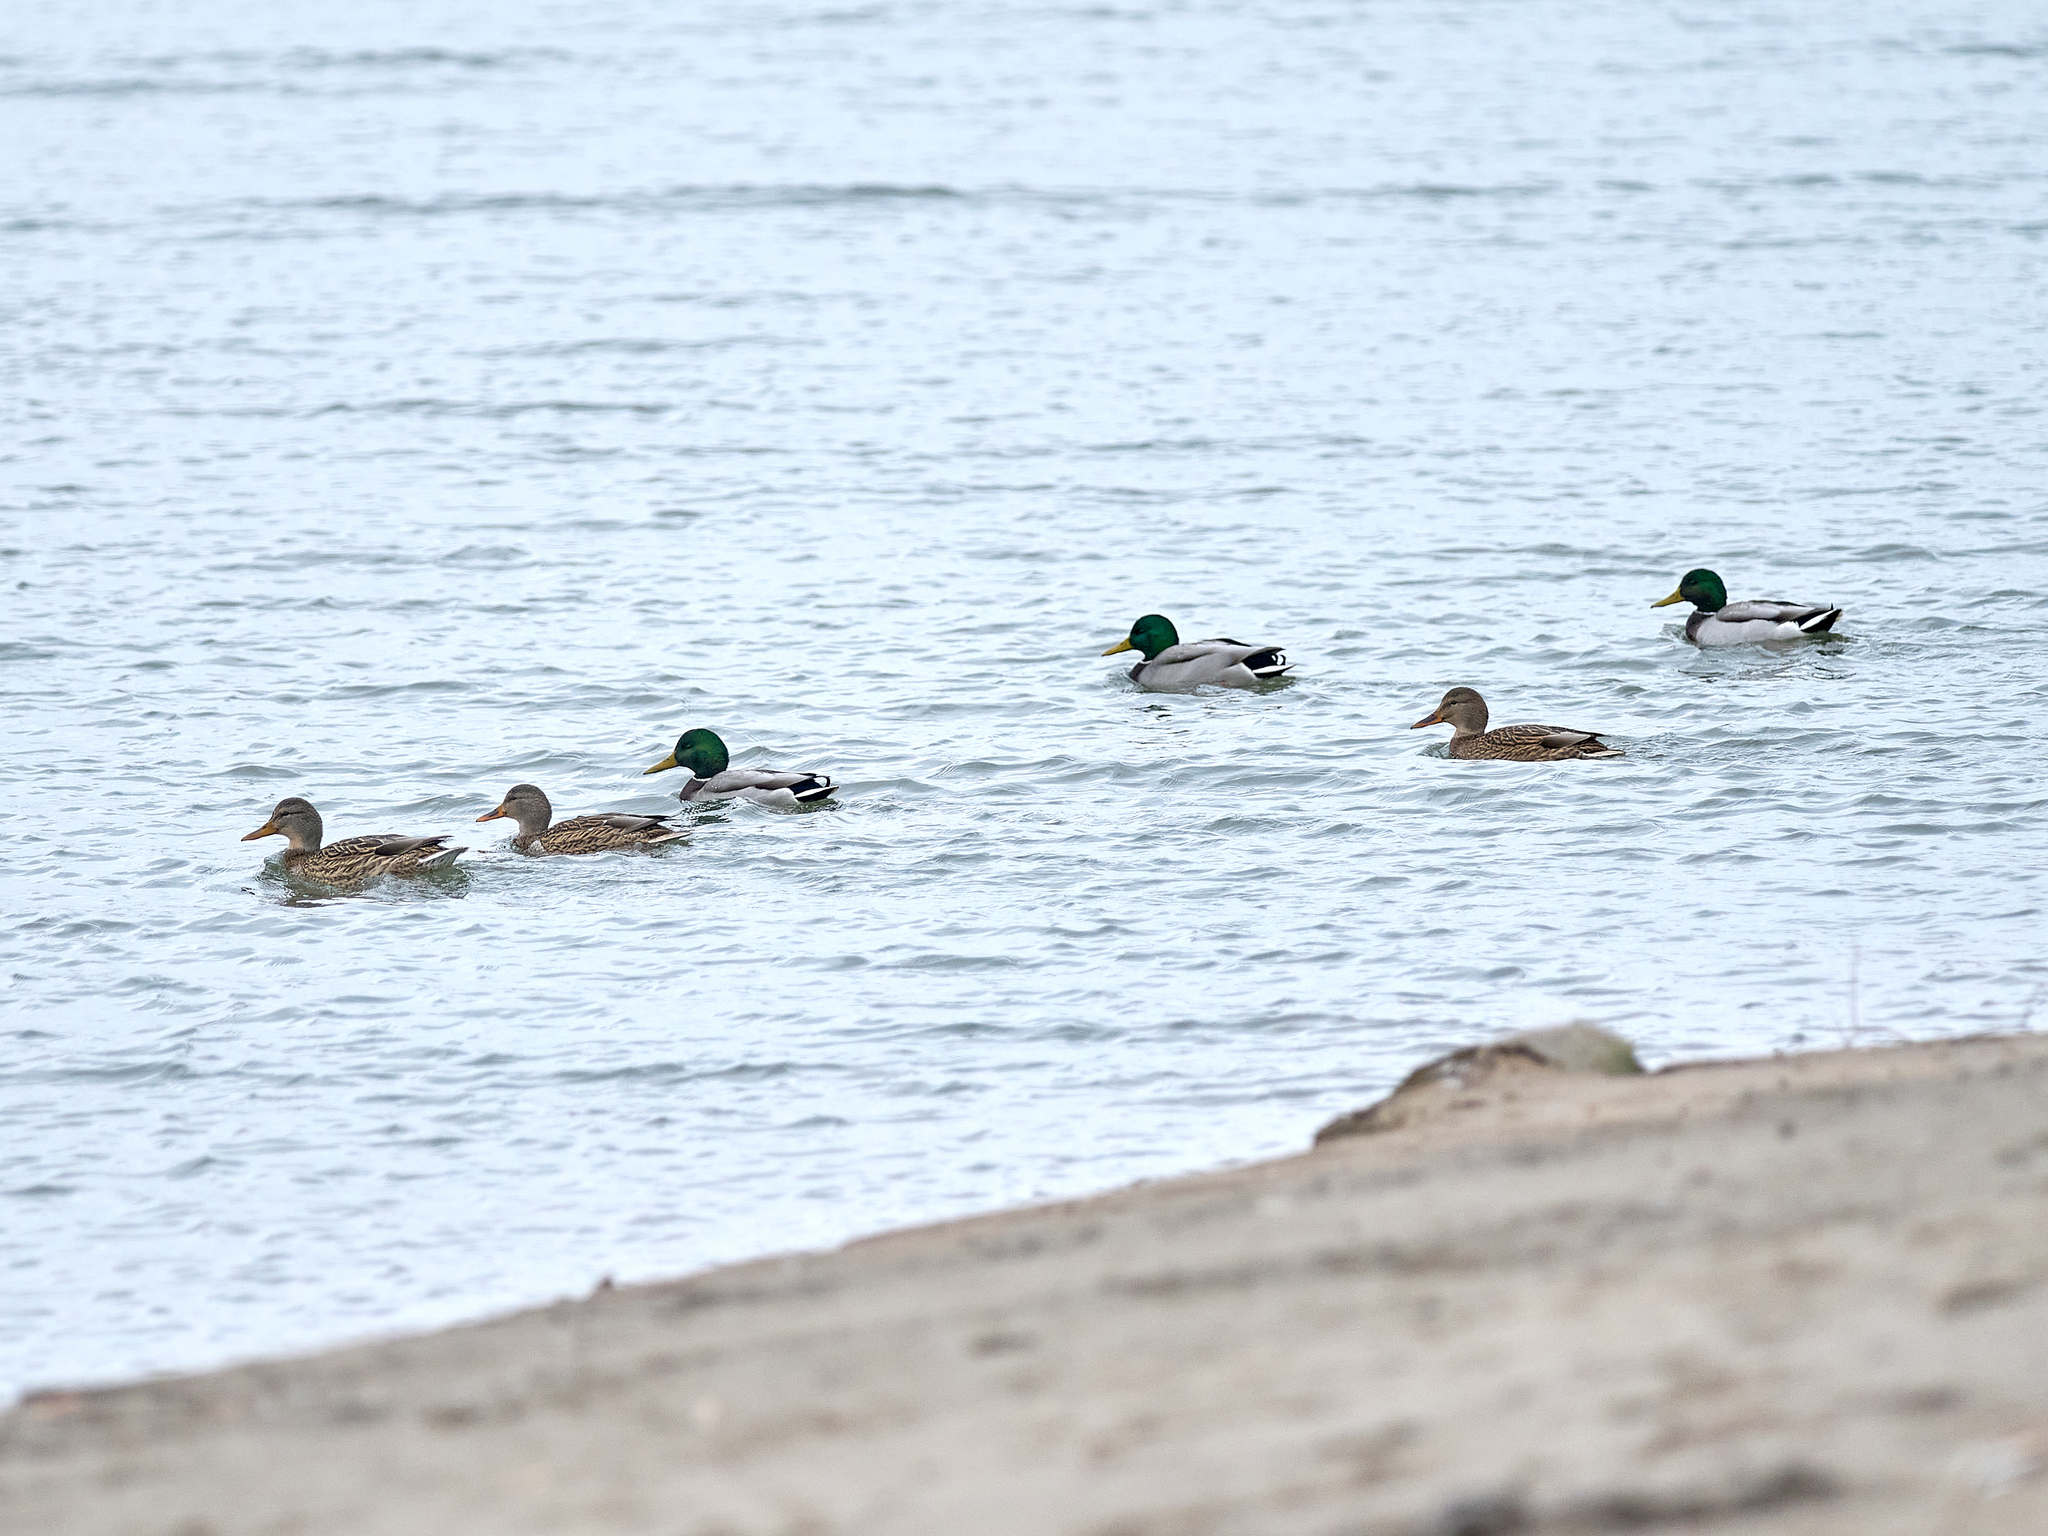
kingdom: Animalia
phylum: Chordata
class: Aves
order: Anseriformes
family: Anatidae
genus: Anas
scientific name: Anas platyrhynchos
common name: Mallard
